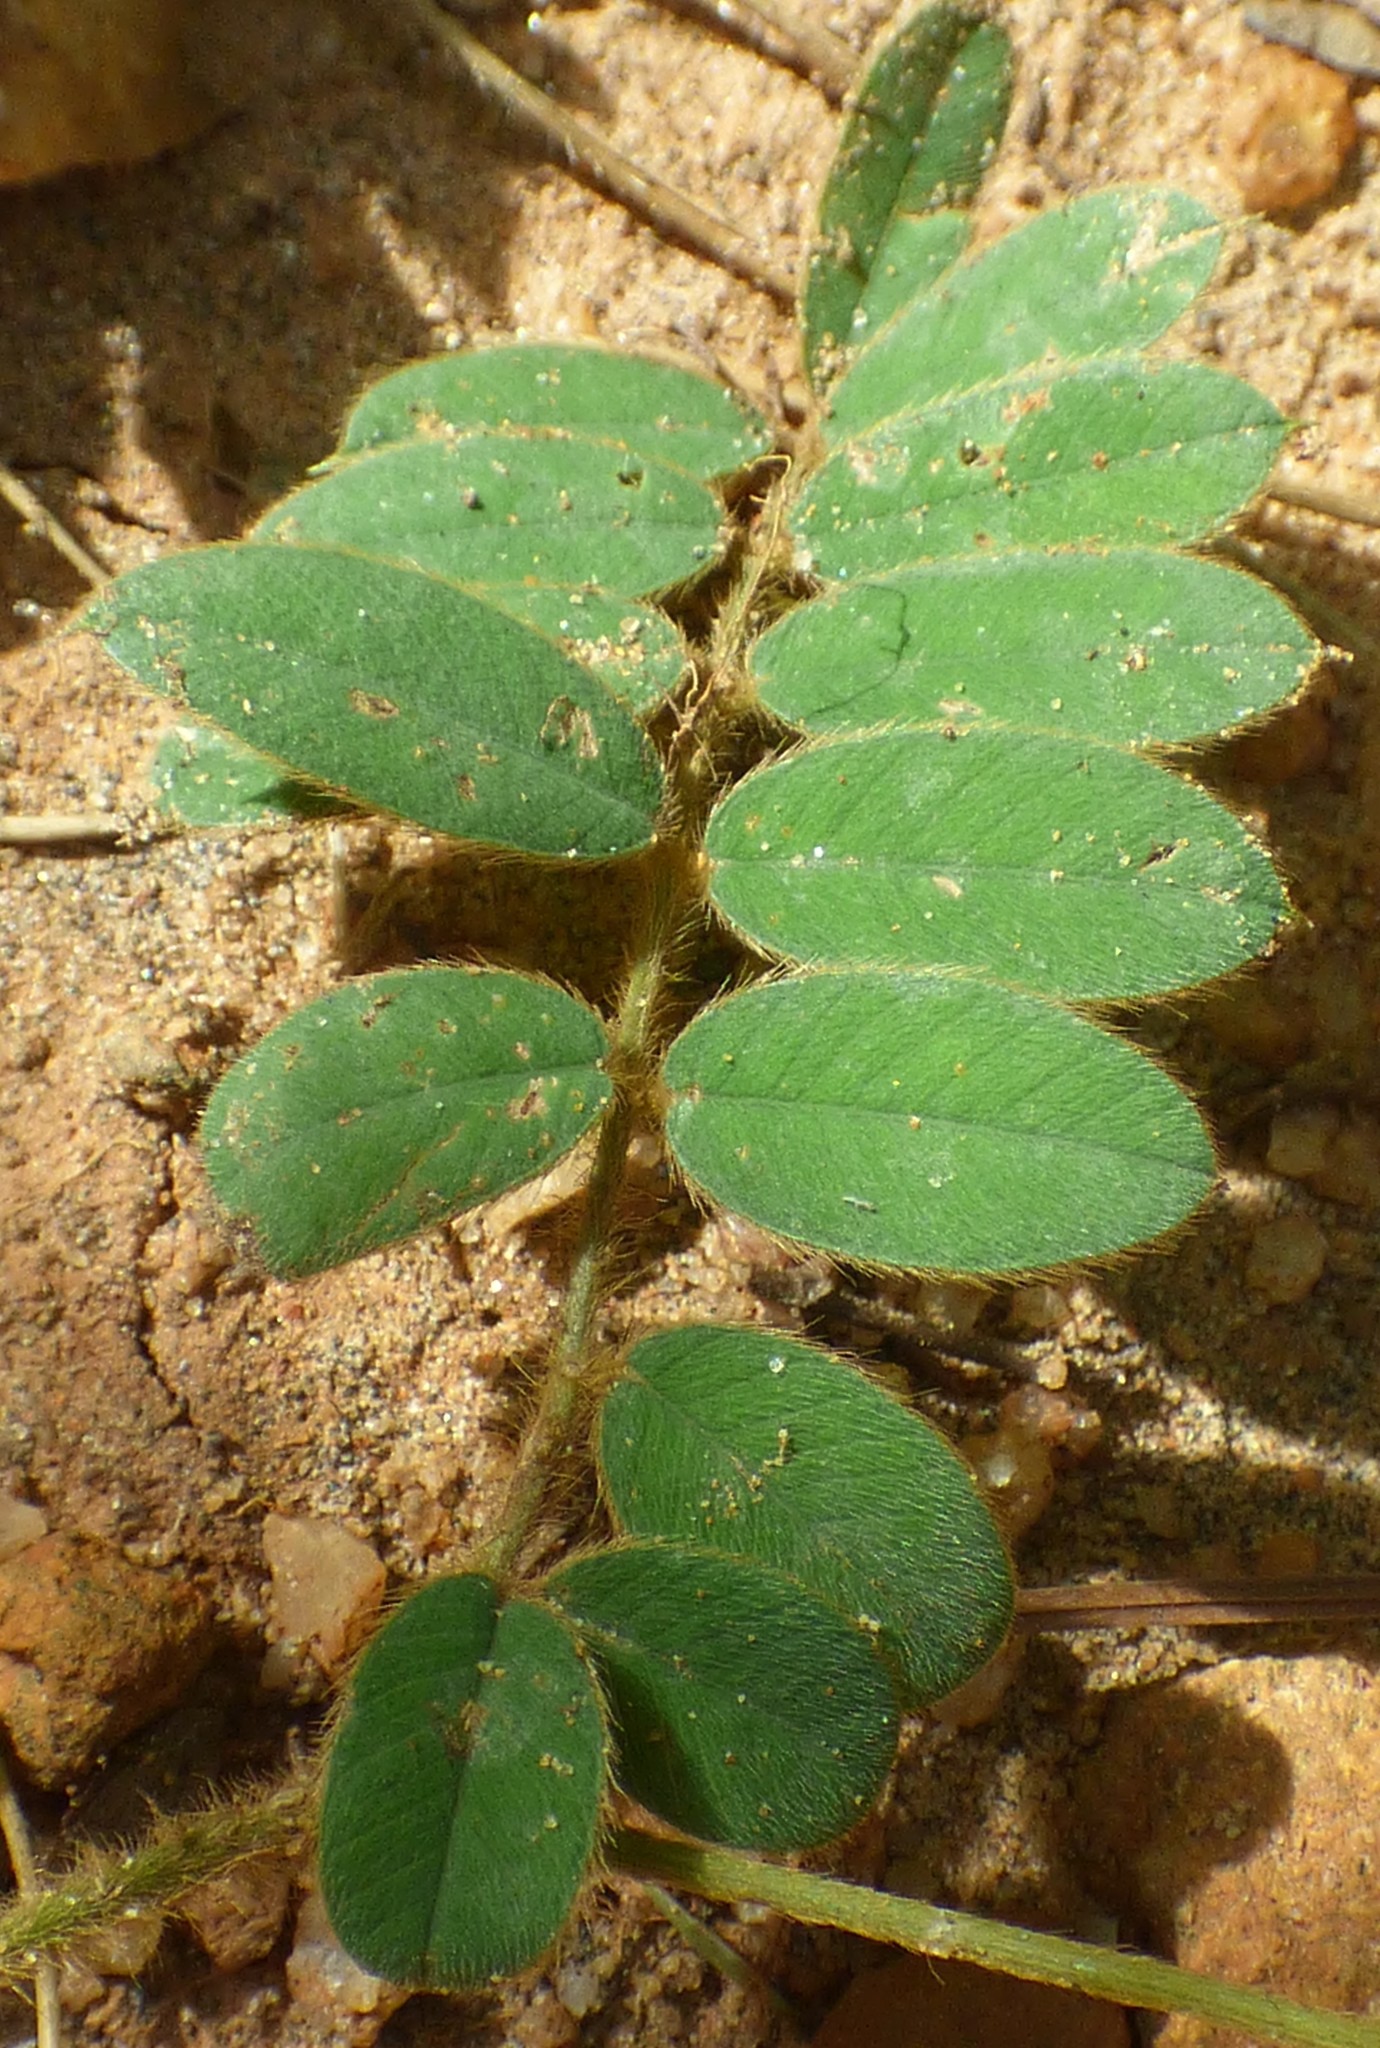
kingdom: Plantae
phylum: Tracheophyta
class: Magnoliopsida
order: Fabales
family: Fabaceae
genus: Tephrosia
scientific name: Tephrosia spicata
